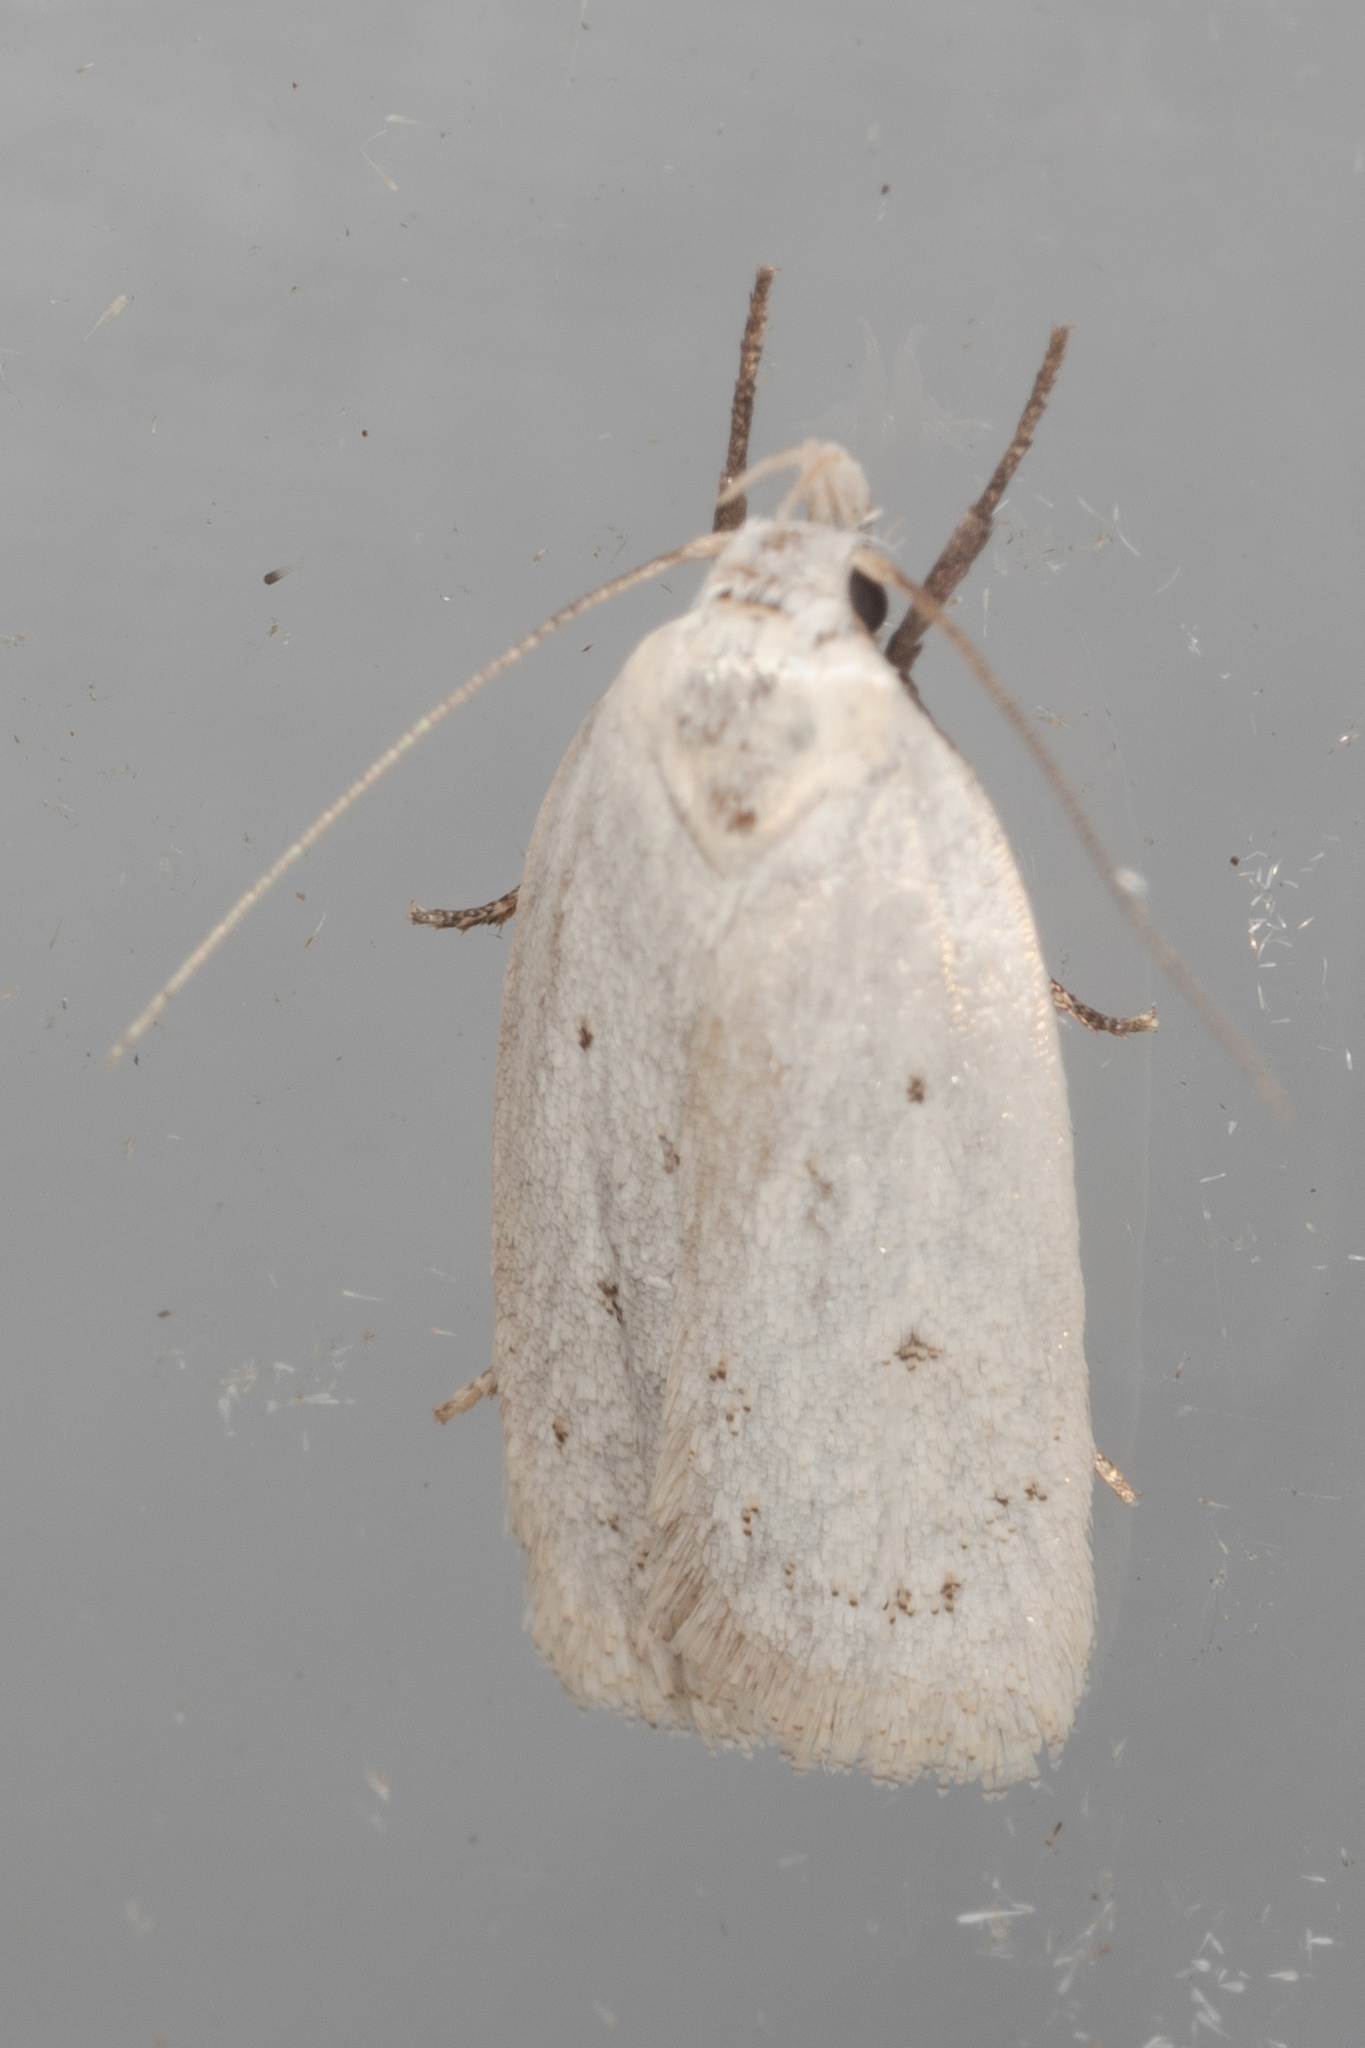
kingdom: Animalia
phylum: Arthropoda
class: Insecta
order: Lepidoptera
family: Oecophoridae
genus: Inga
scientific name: Inga cretacea
